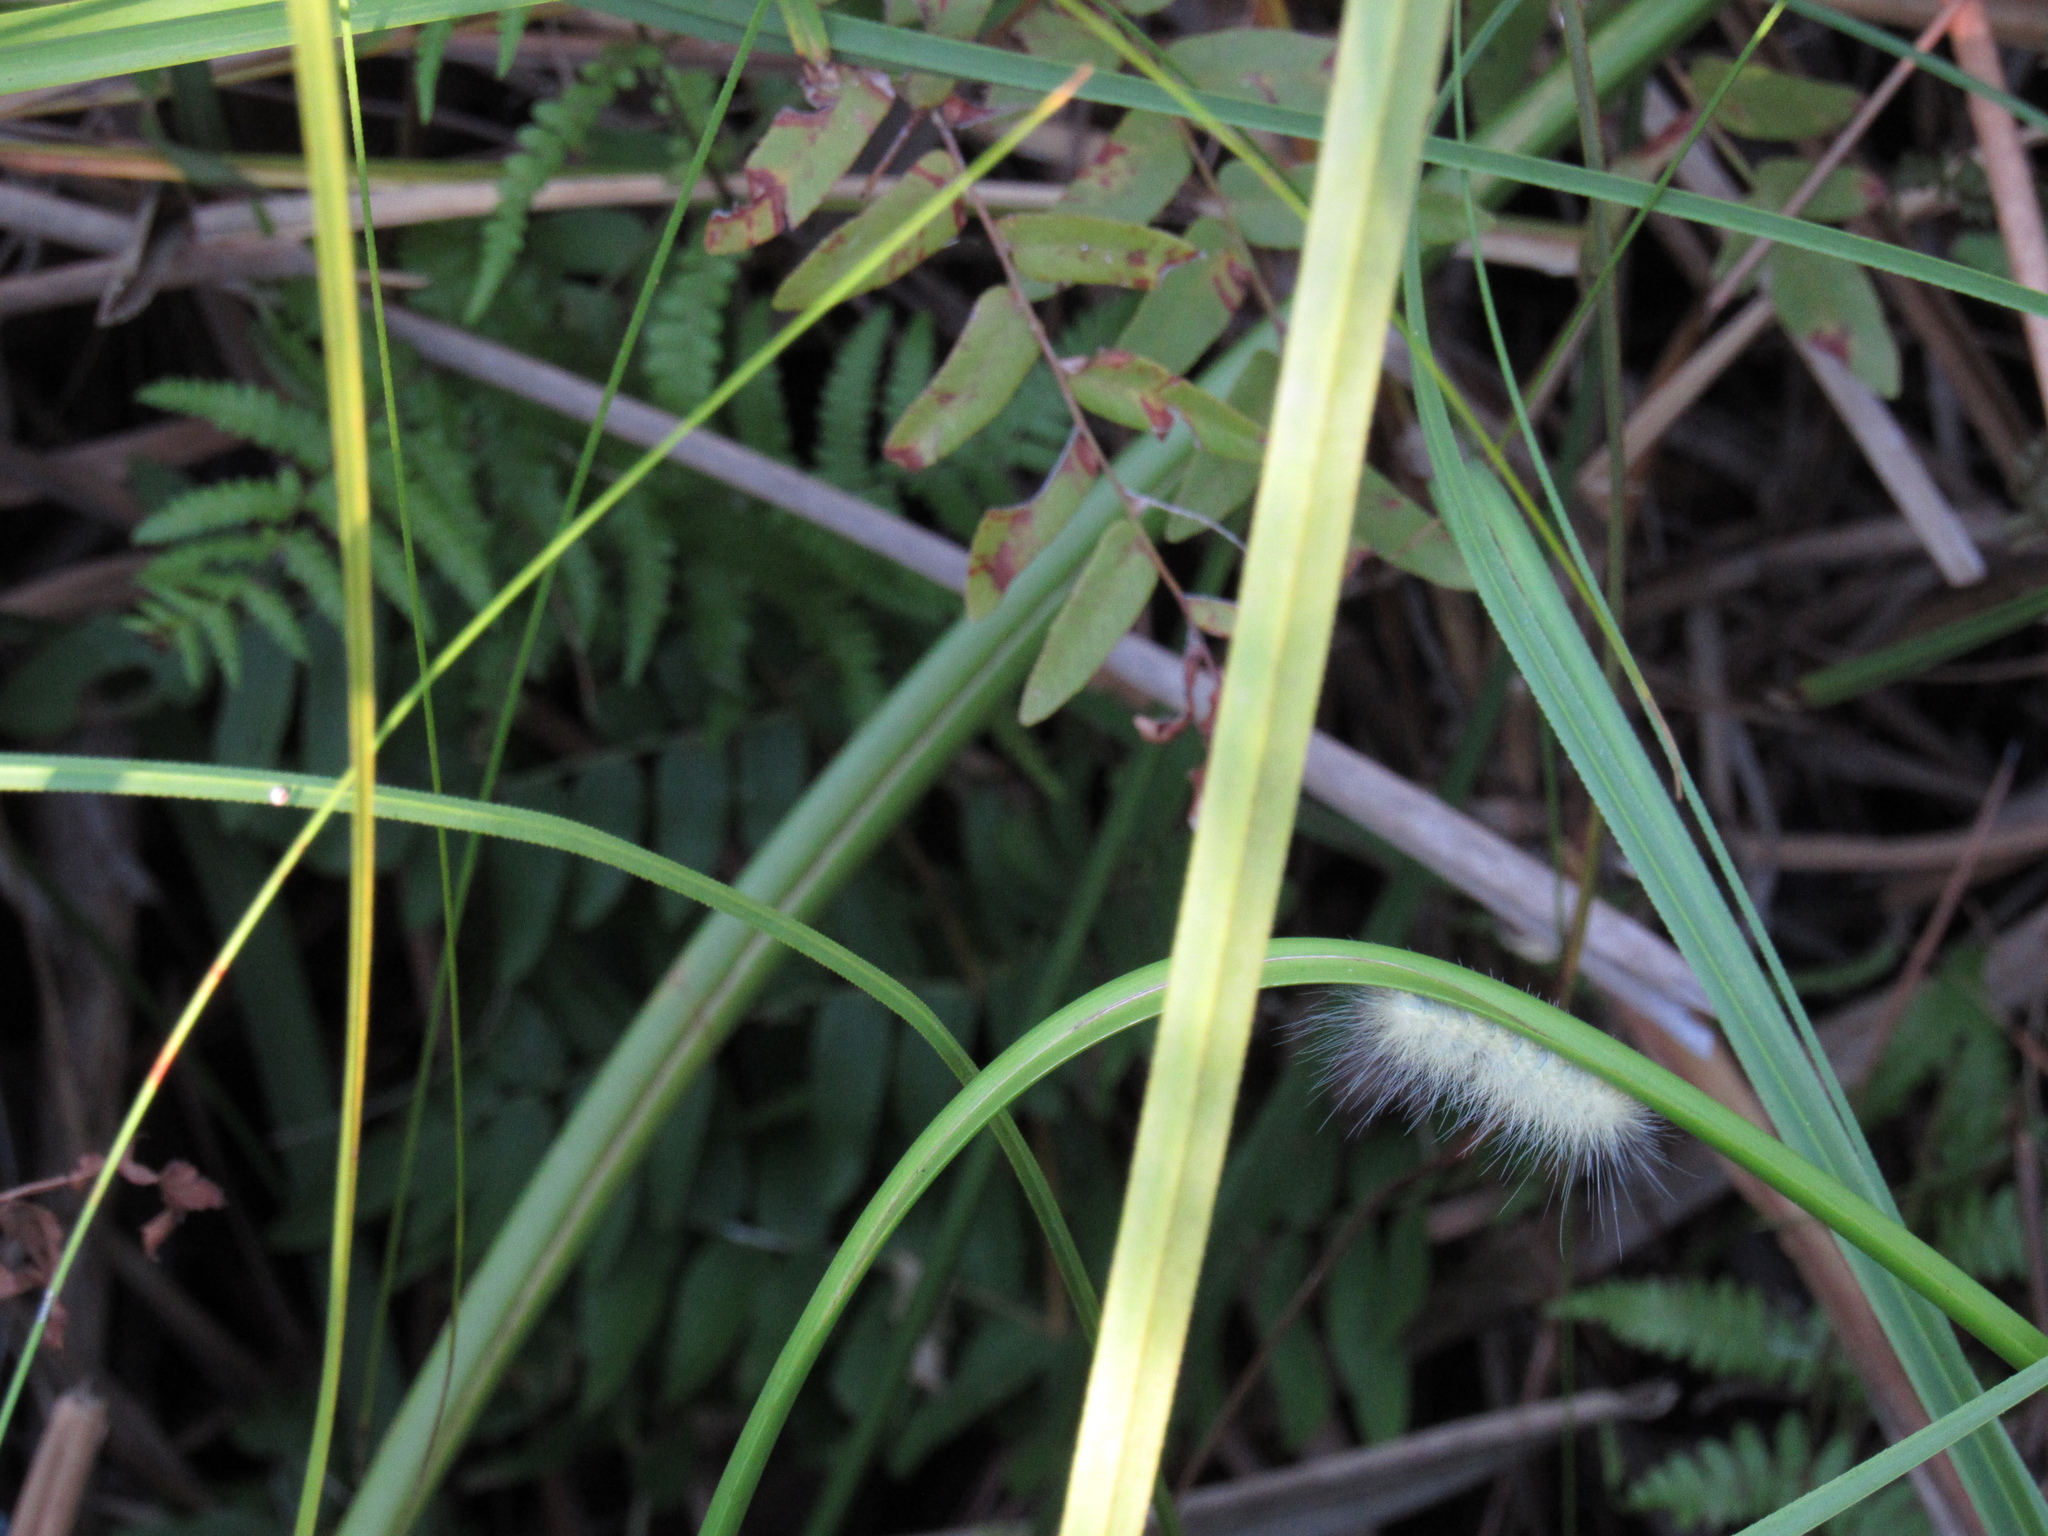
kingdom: Animalia
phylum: Arthropoda
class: Insecta
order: Lepidoptera
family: Erebidae
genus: Spilosoma
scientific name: Spilosoma virginica
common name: Virginia tiger moth
